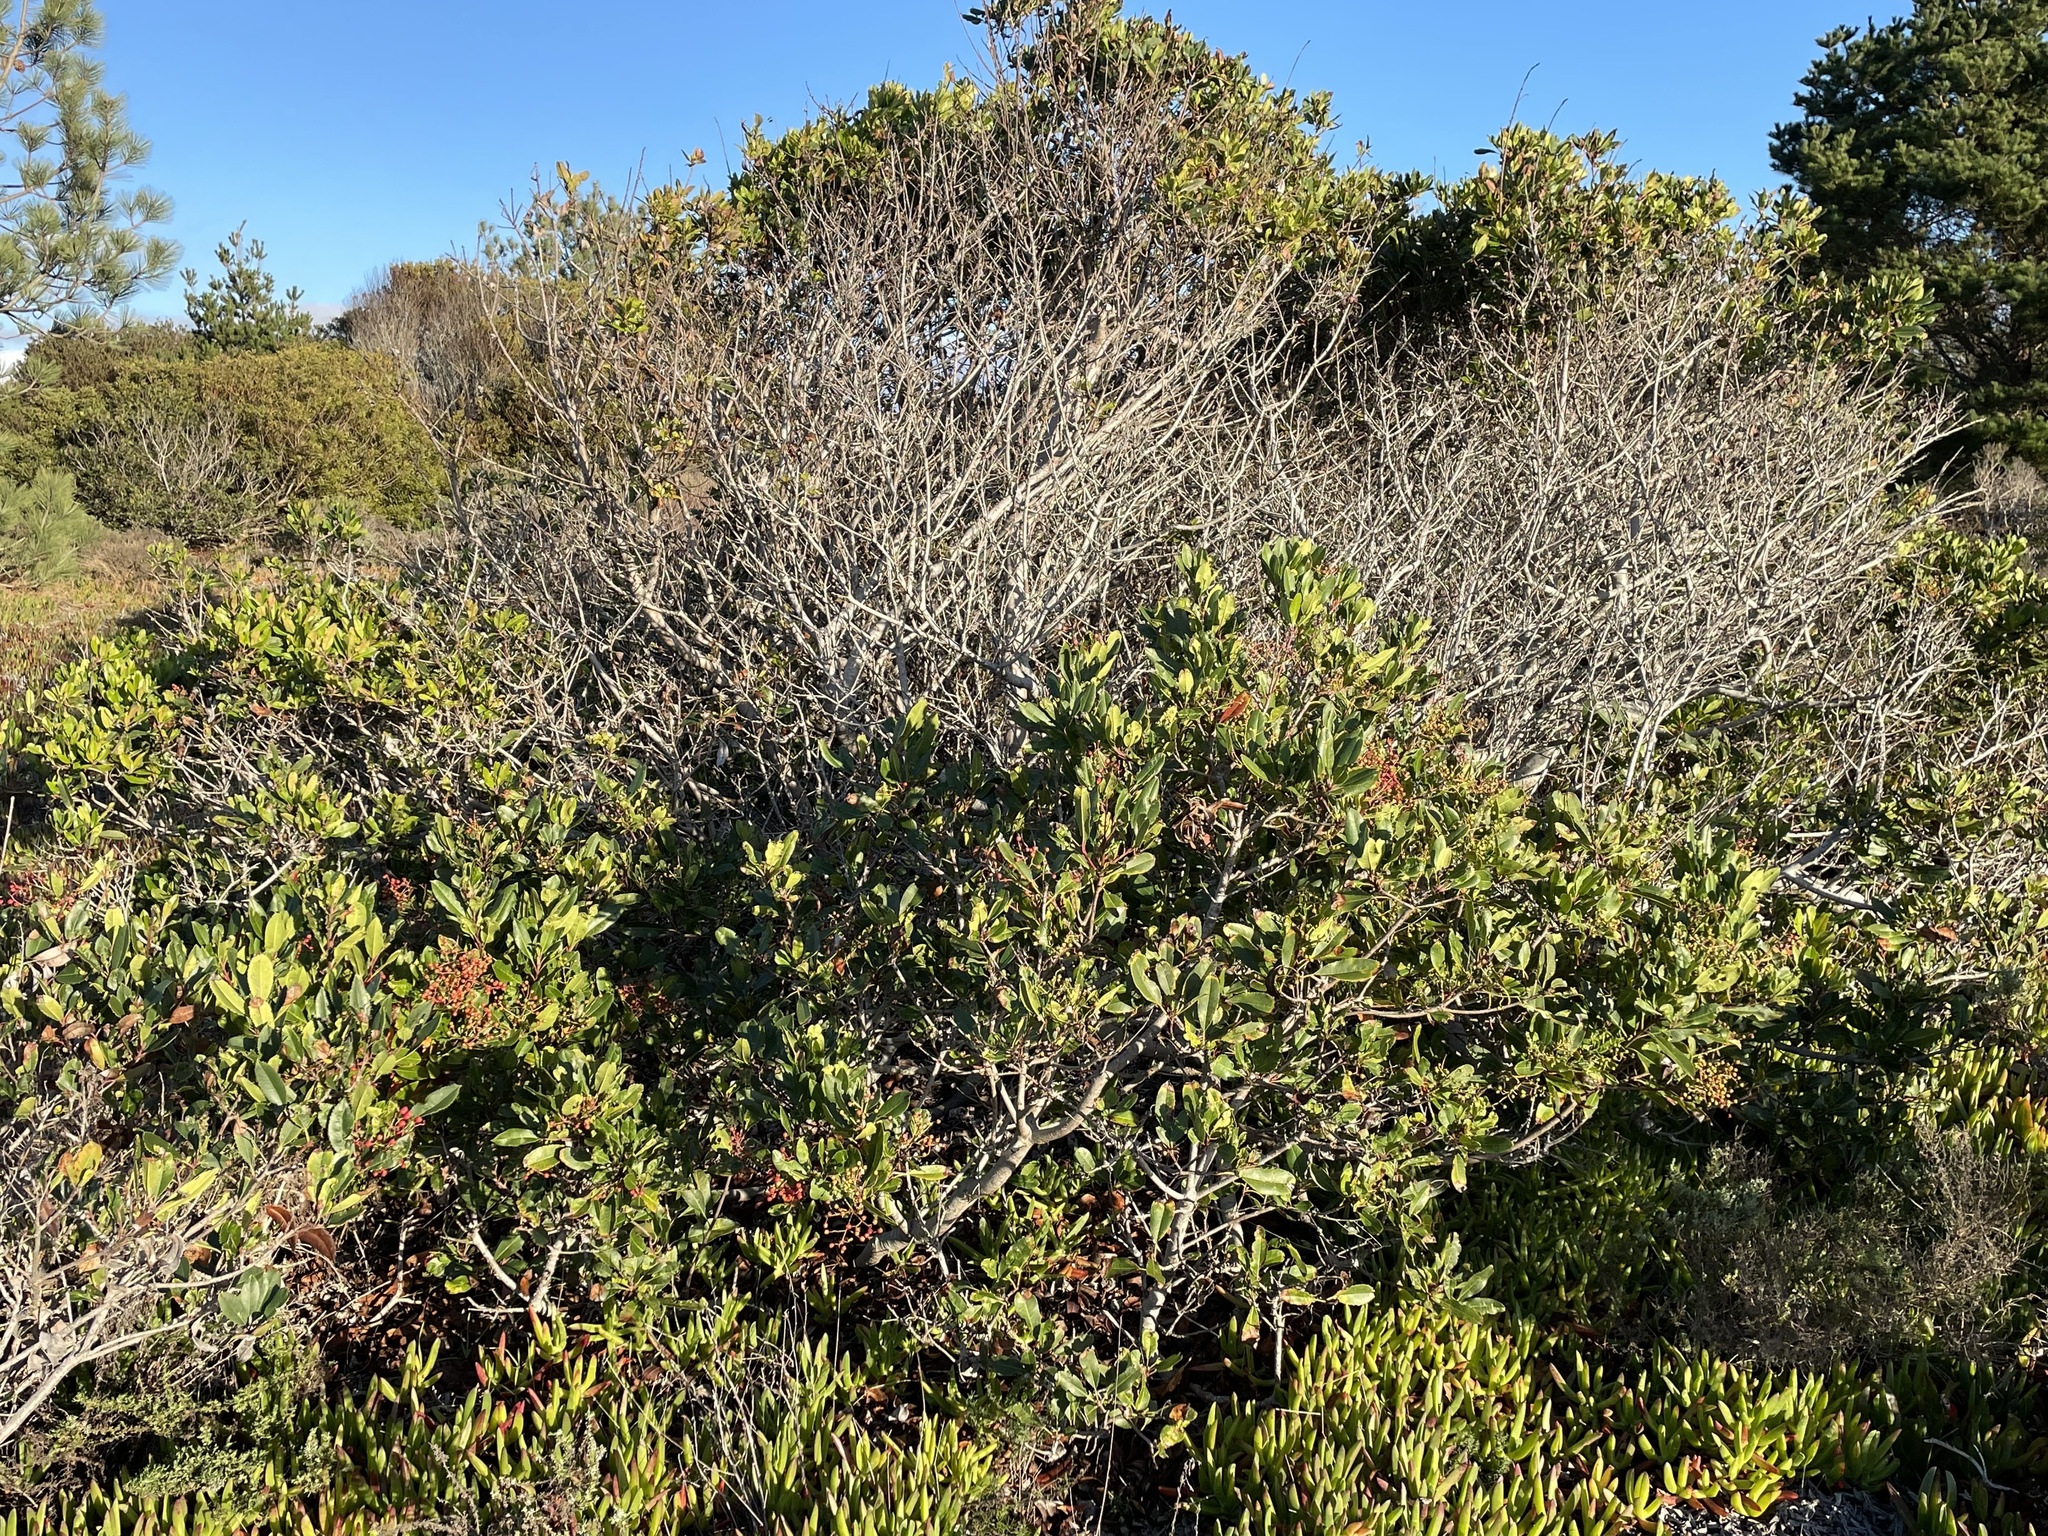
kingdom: Plantae
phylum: Tracheophyta
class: Magnoliopsida
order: Rosales
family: Rosaceae
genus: Heteromeles
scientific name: Heteromeles arbutifolia
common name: California-holly
